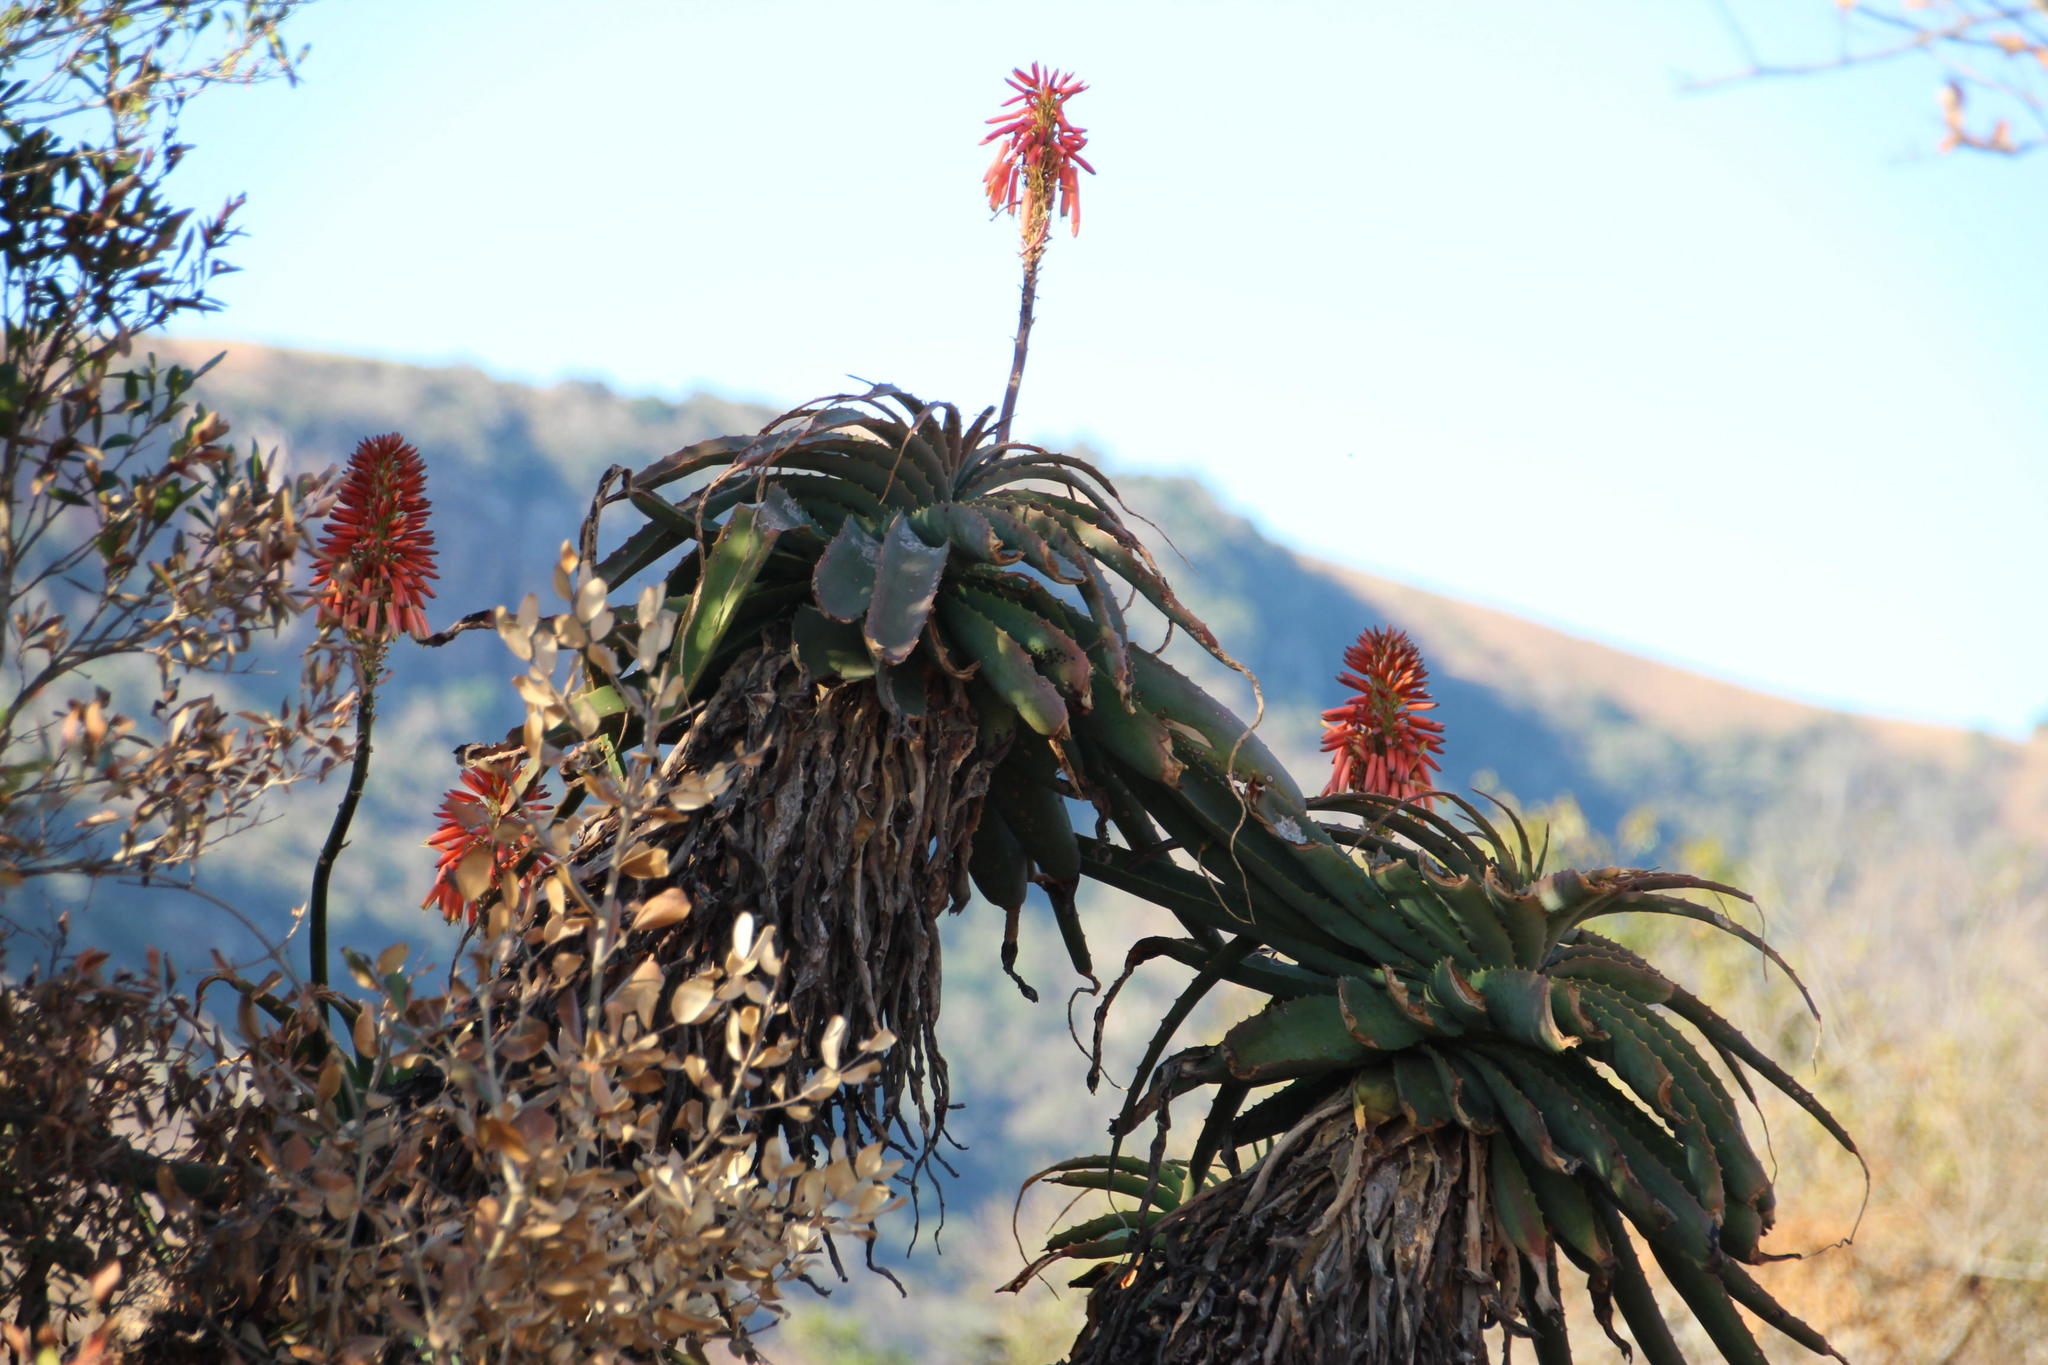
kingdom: Plantae
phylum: Tracheophyta
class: Liliopsida
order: Asparagales
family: Asphodelaceae
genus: Aloe
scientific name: Aloe arborescens
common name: Candelabra aloe
